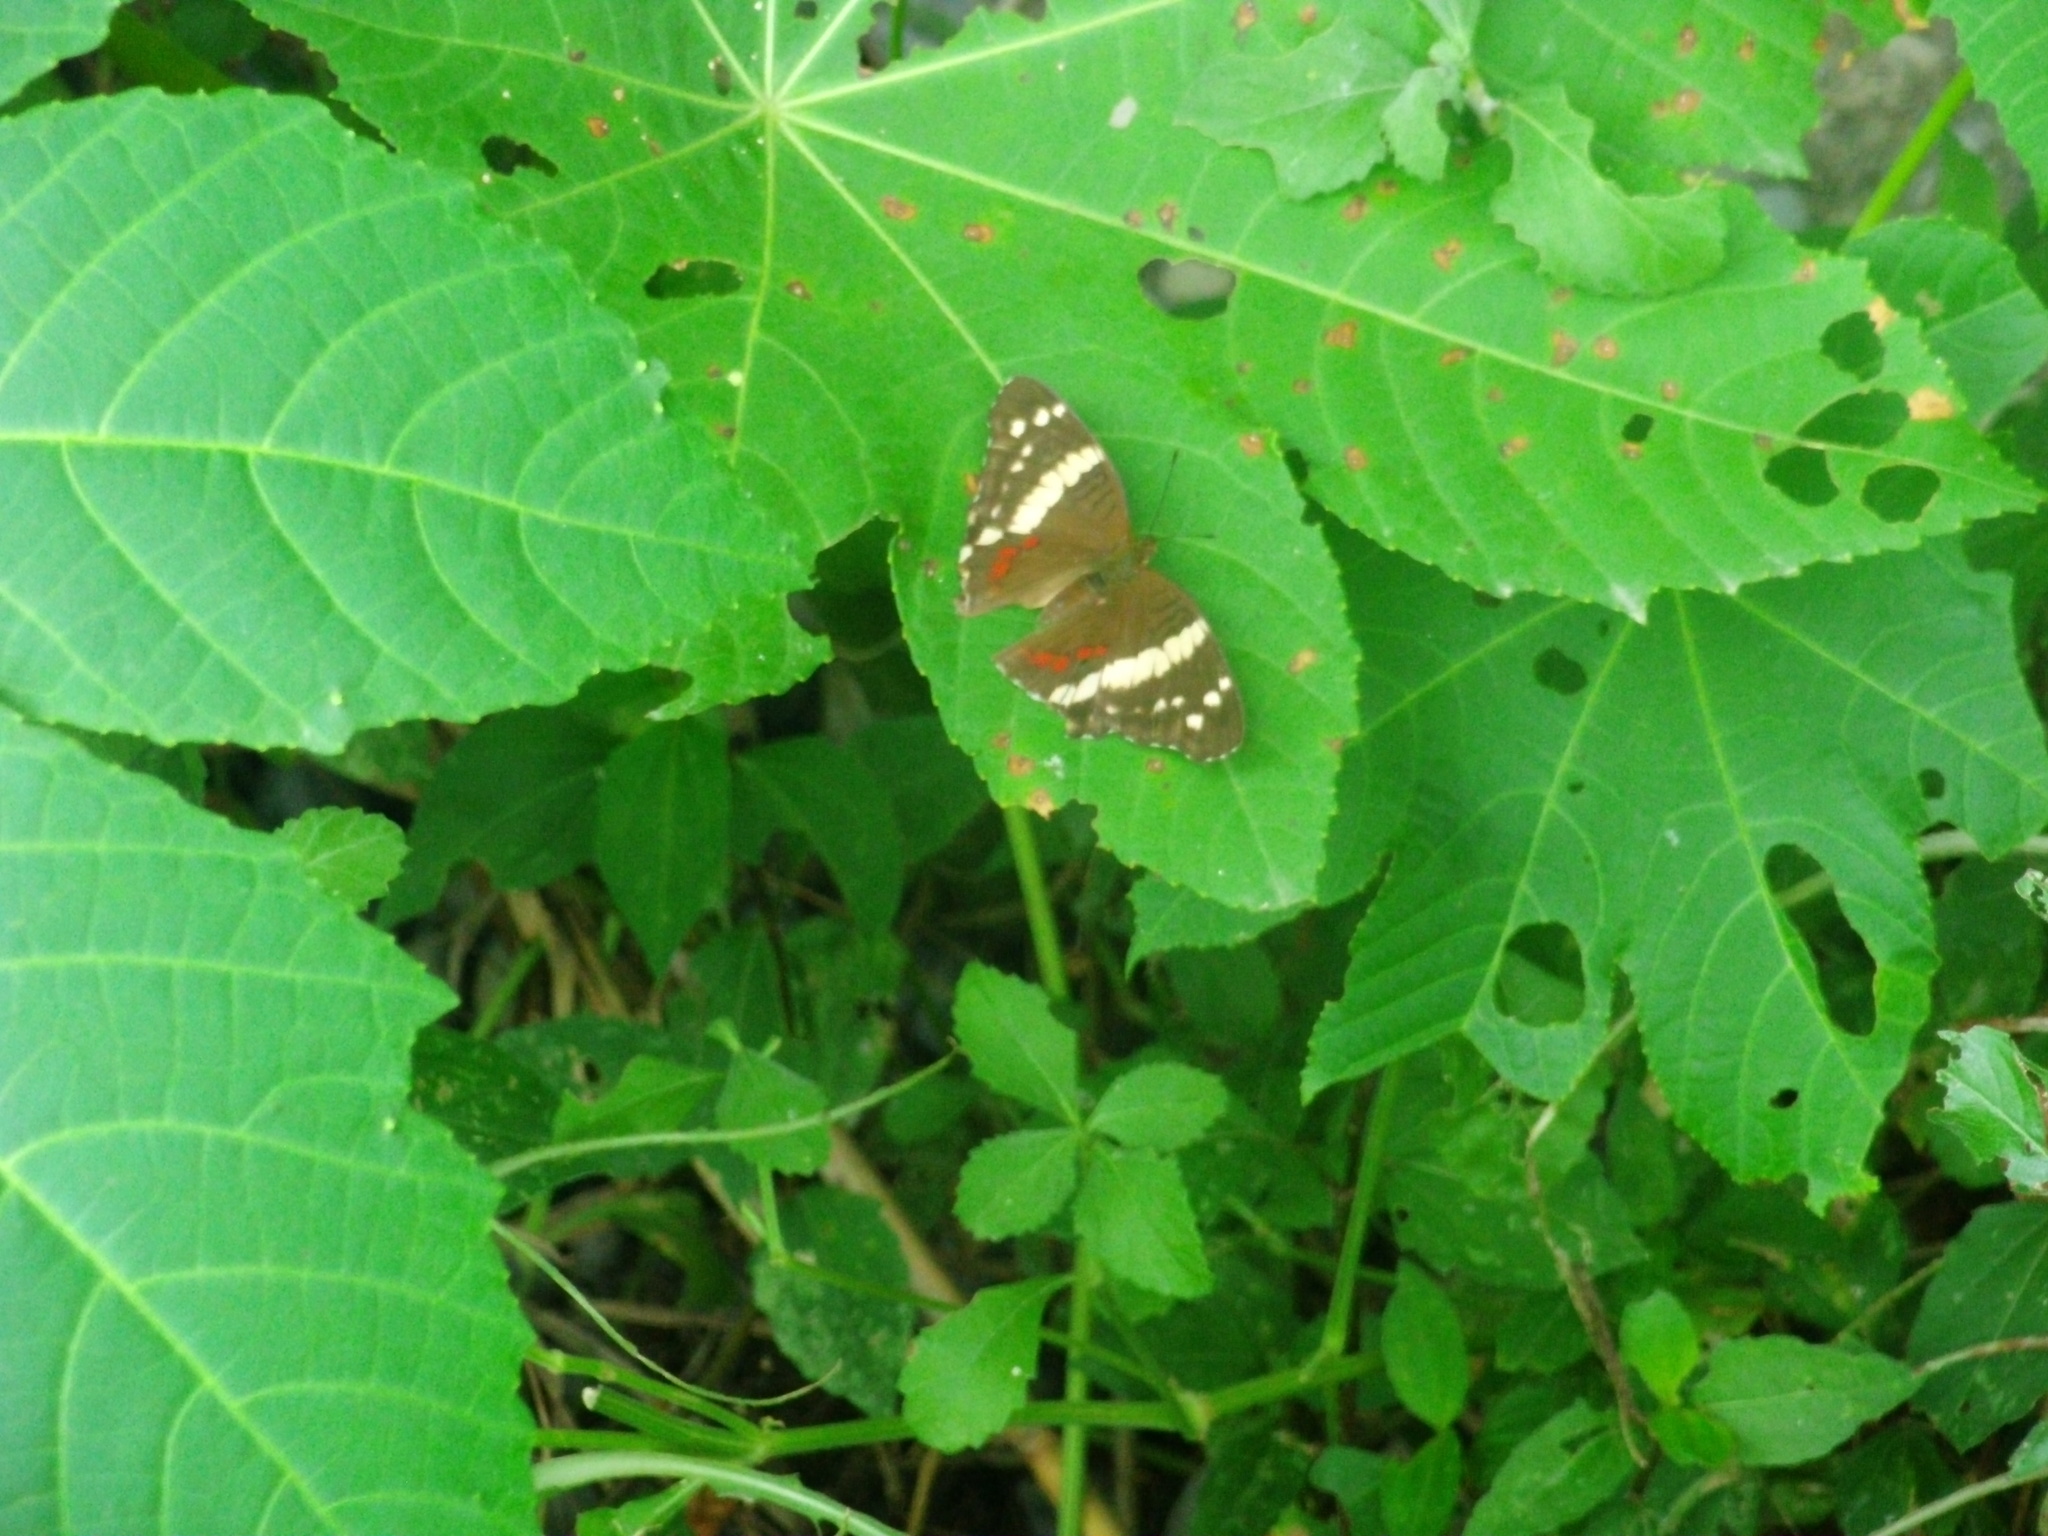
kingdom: Animalia
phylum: Arthropoda
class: Insecta
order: Lepidoptera
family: Nymphalidae
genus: Anartia
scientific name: Anartia fatima
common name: Banded peacock
